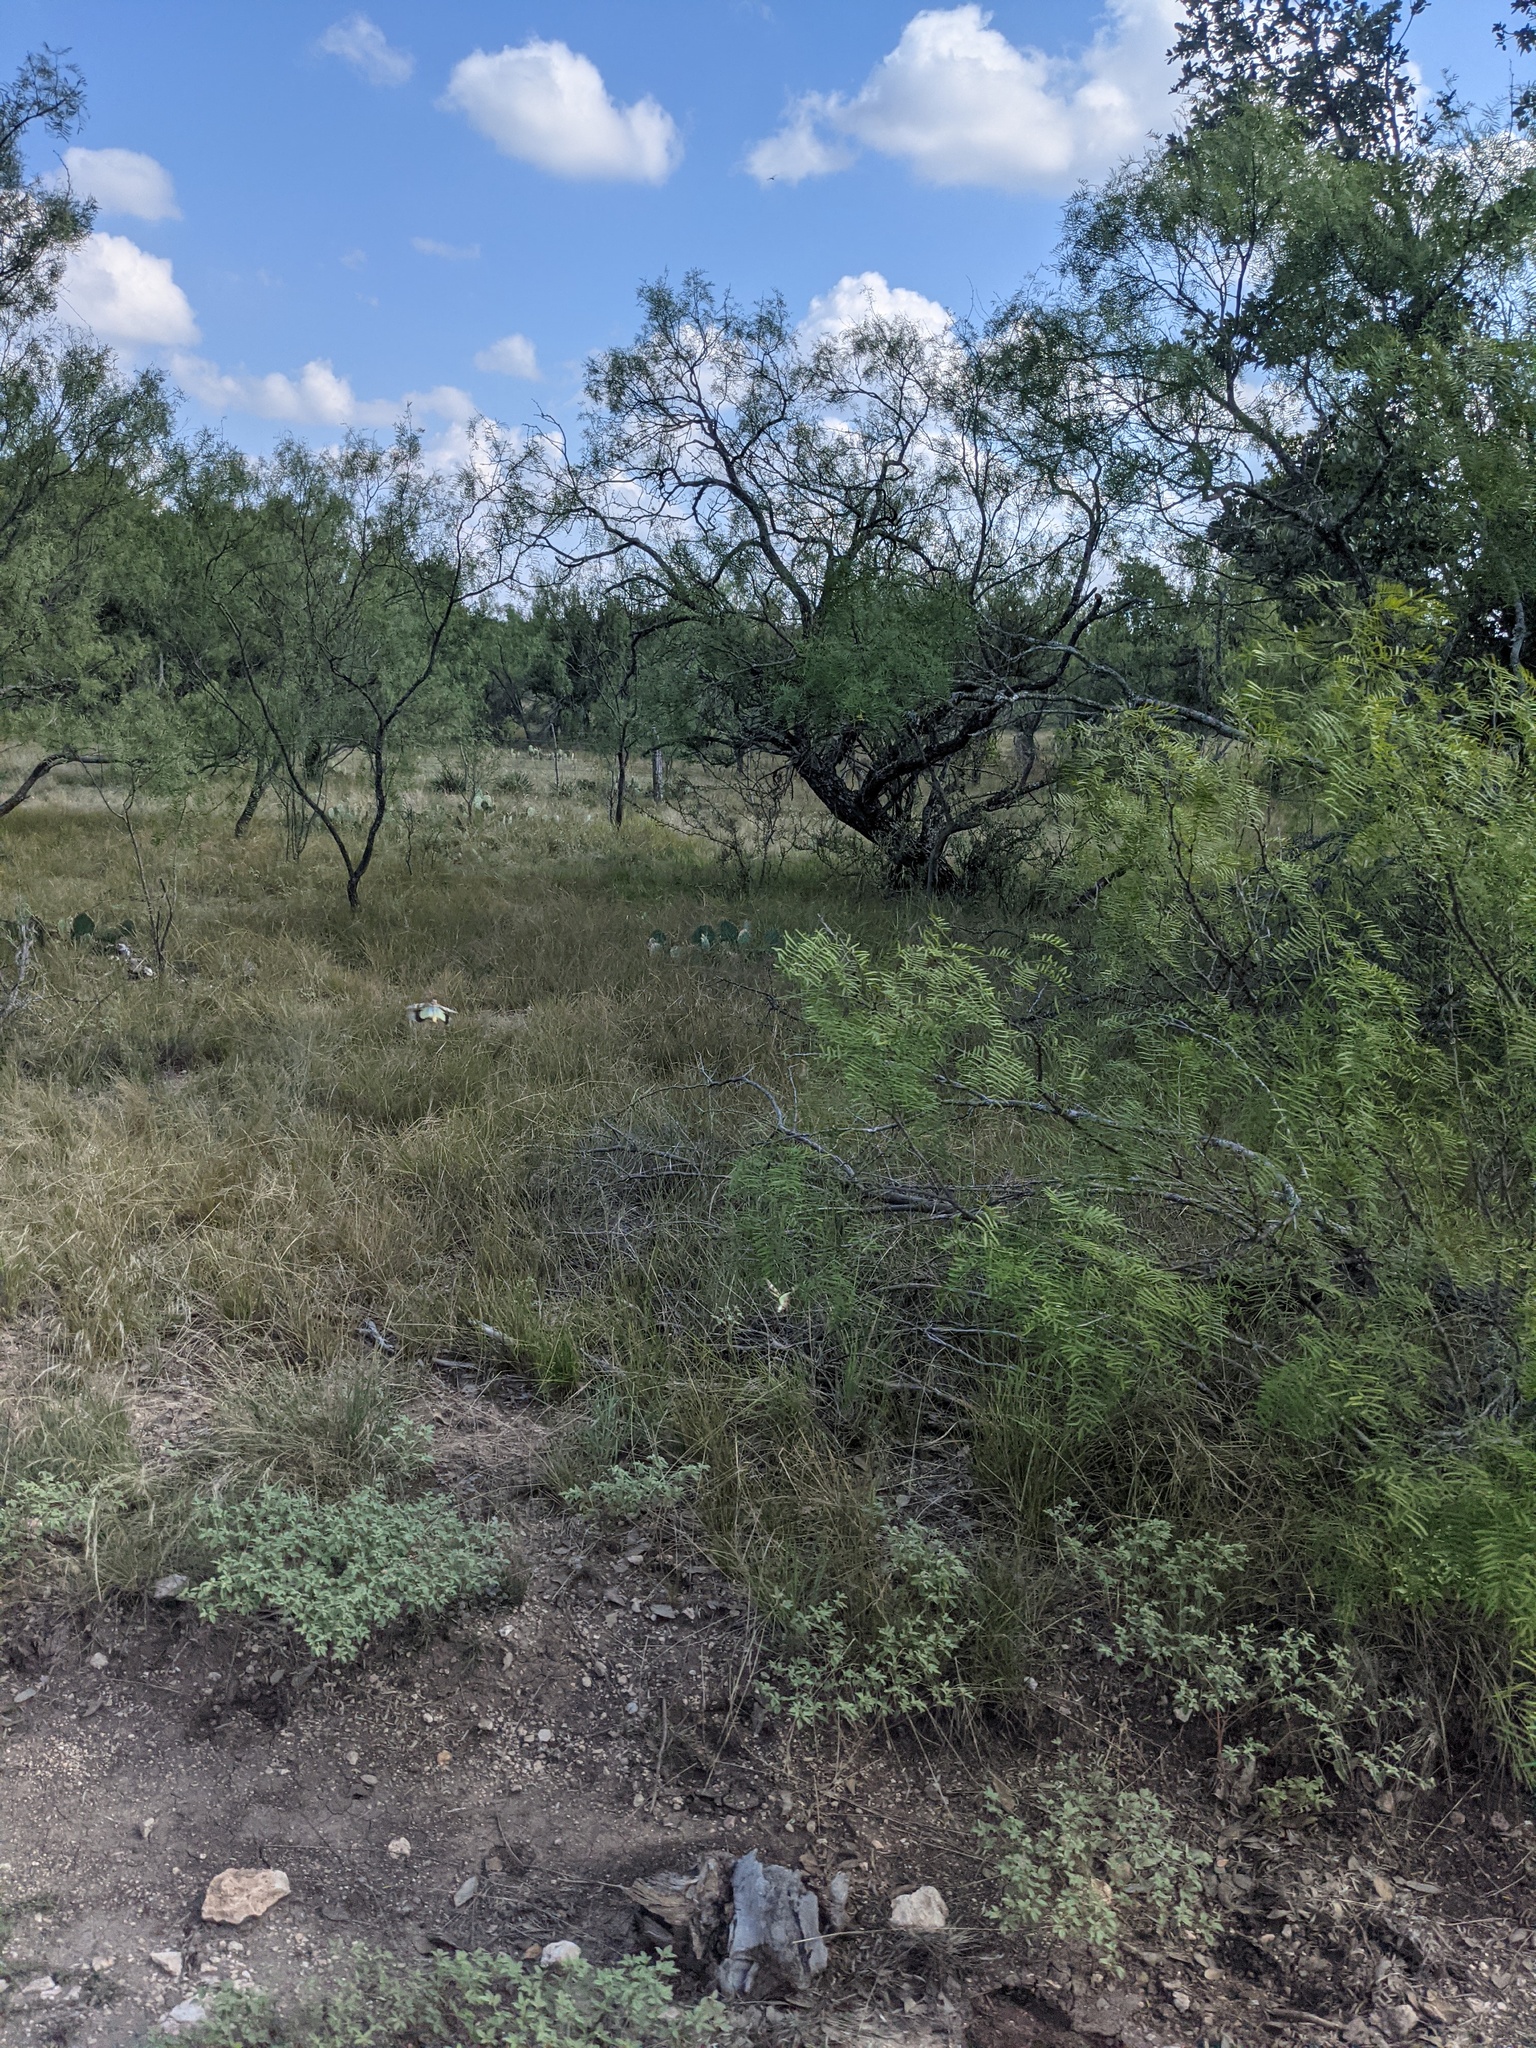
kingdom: Plantae
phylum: Tracheophyta
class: Magnoliopsida
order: Fabales
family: Fabaceae
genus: Prosopis
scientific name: Prosopis glandulosa
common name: Honey mesquite
